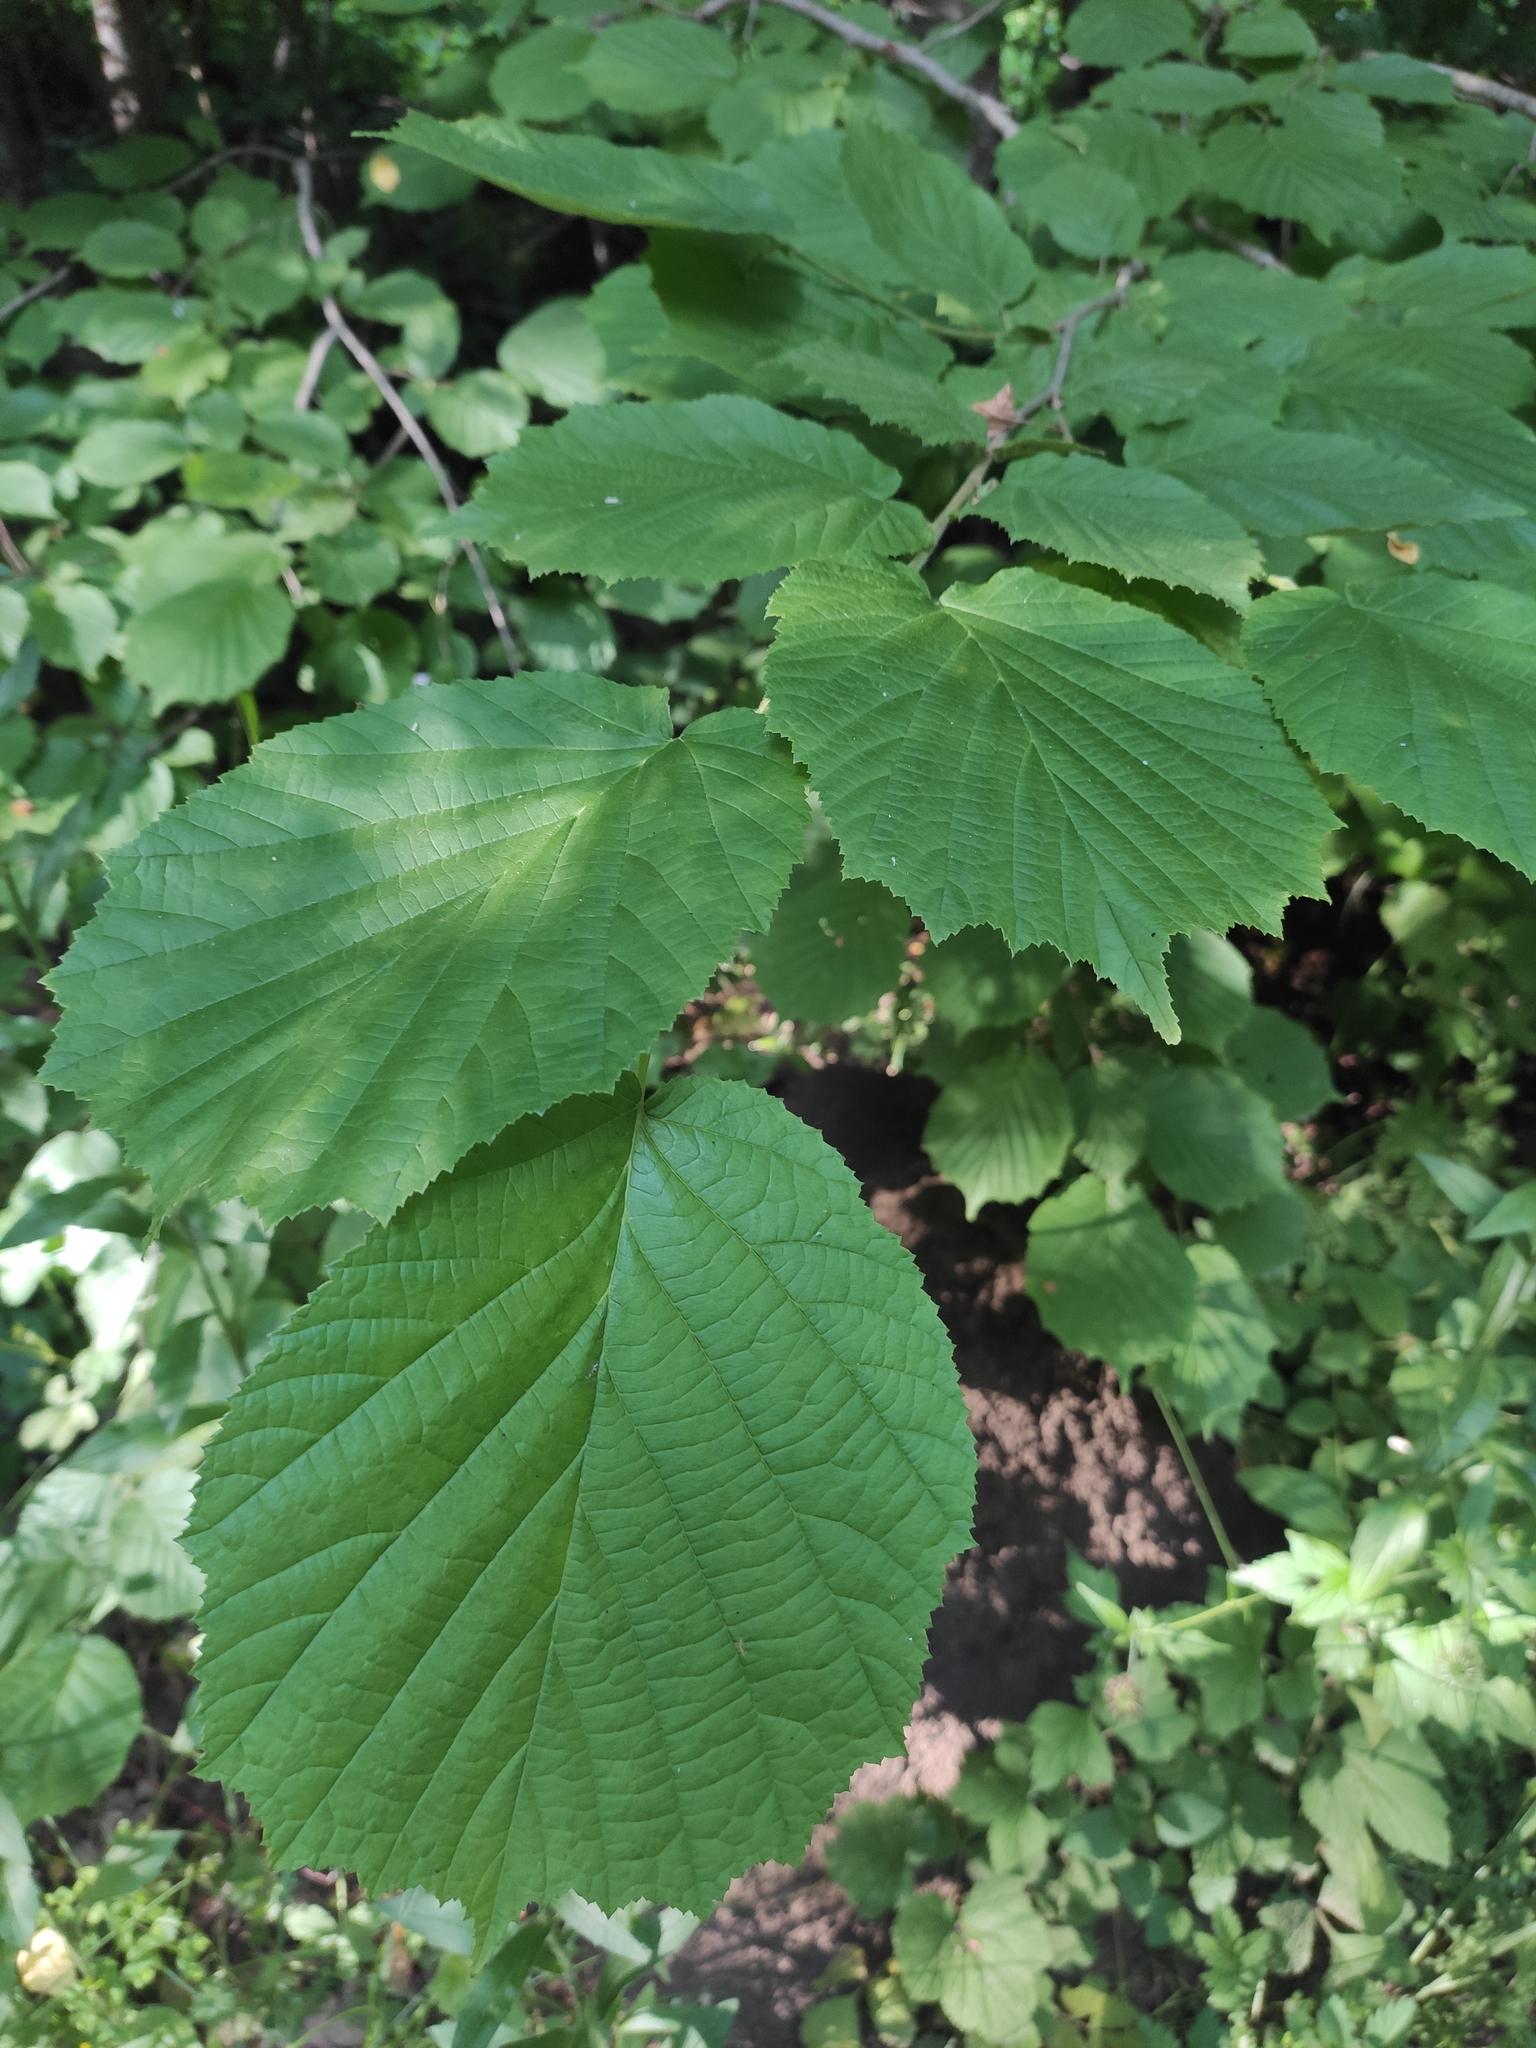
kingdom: Plantae
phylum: Tracheophyta
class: Magnoliopsida
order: Fagales
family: Betulaceae
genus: Corylus
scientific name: Corylus avellana
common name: European hazel
